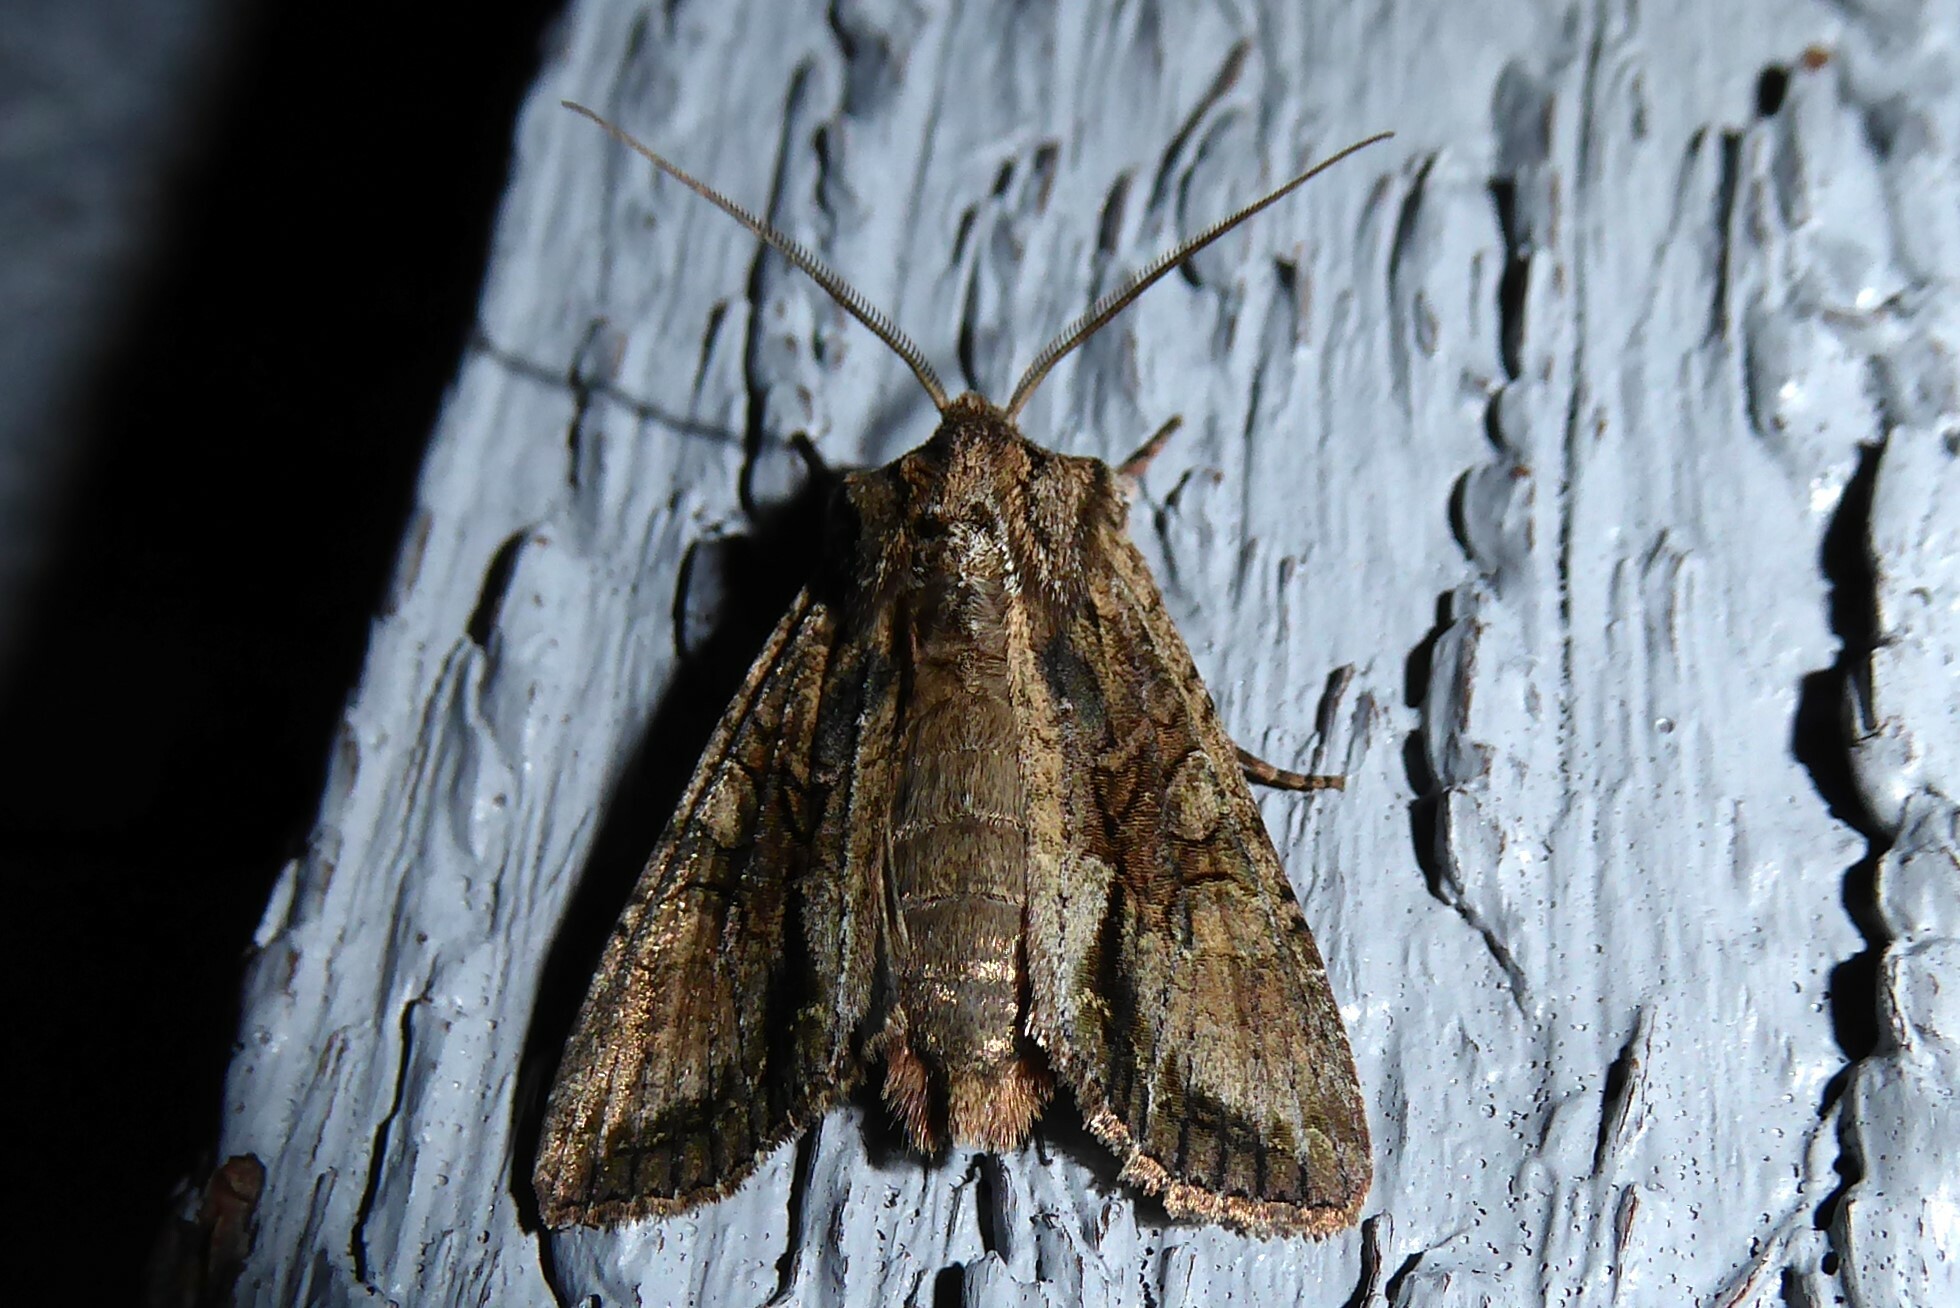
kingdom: Animalia
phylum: Arthropoda
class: Insecta
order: Lepidoptera
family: Noctuidae
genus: Ichneutica
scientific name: Ichneutica mutans
